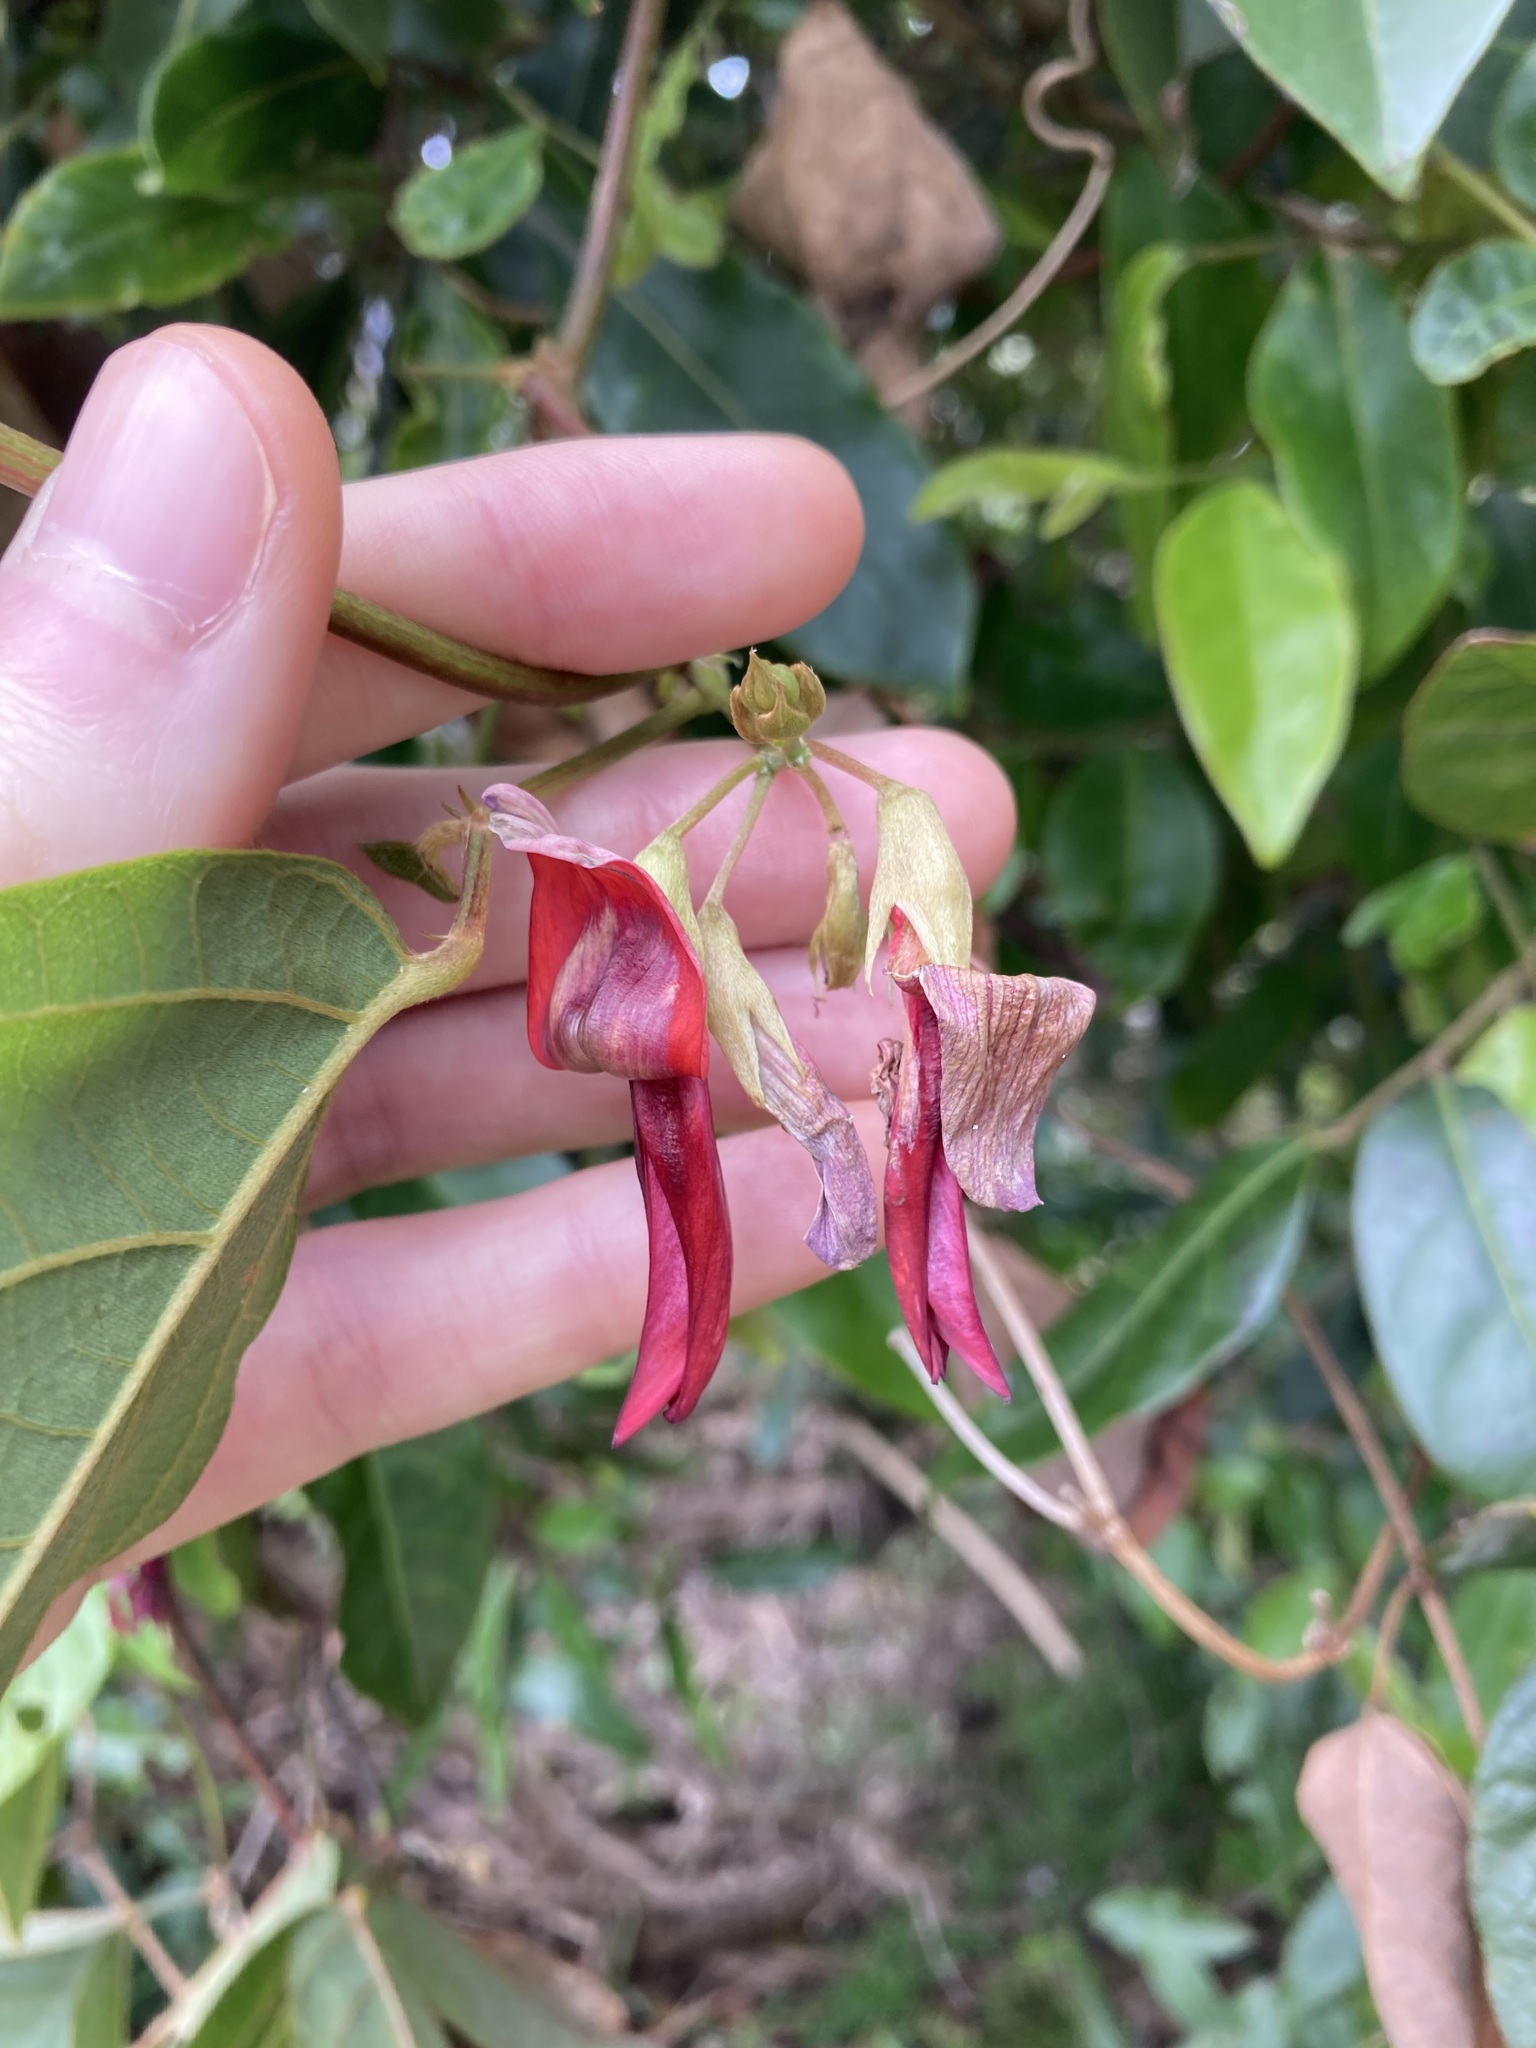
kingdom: Plantae
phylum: Tracheophyta
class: Magnoliopsida
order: Fabales
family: Fabaceae
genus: Kennedia
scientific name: Kennedia rubicunda
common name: Red kennedy-pea
